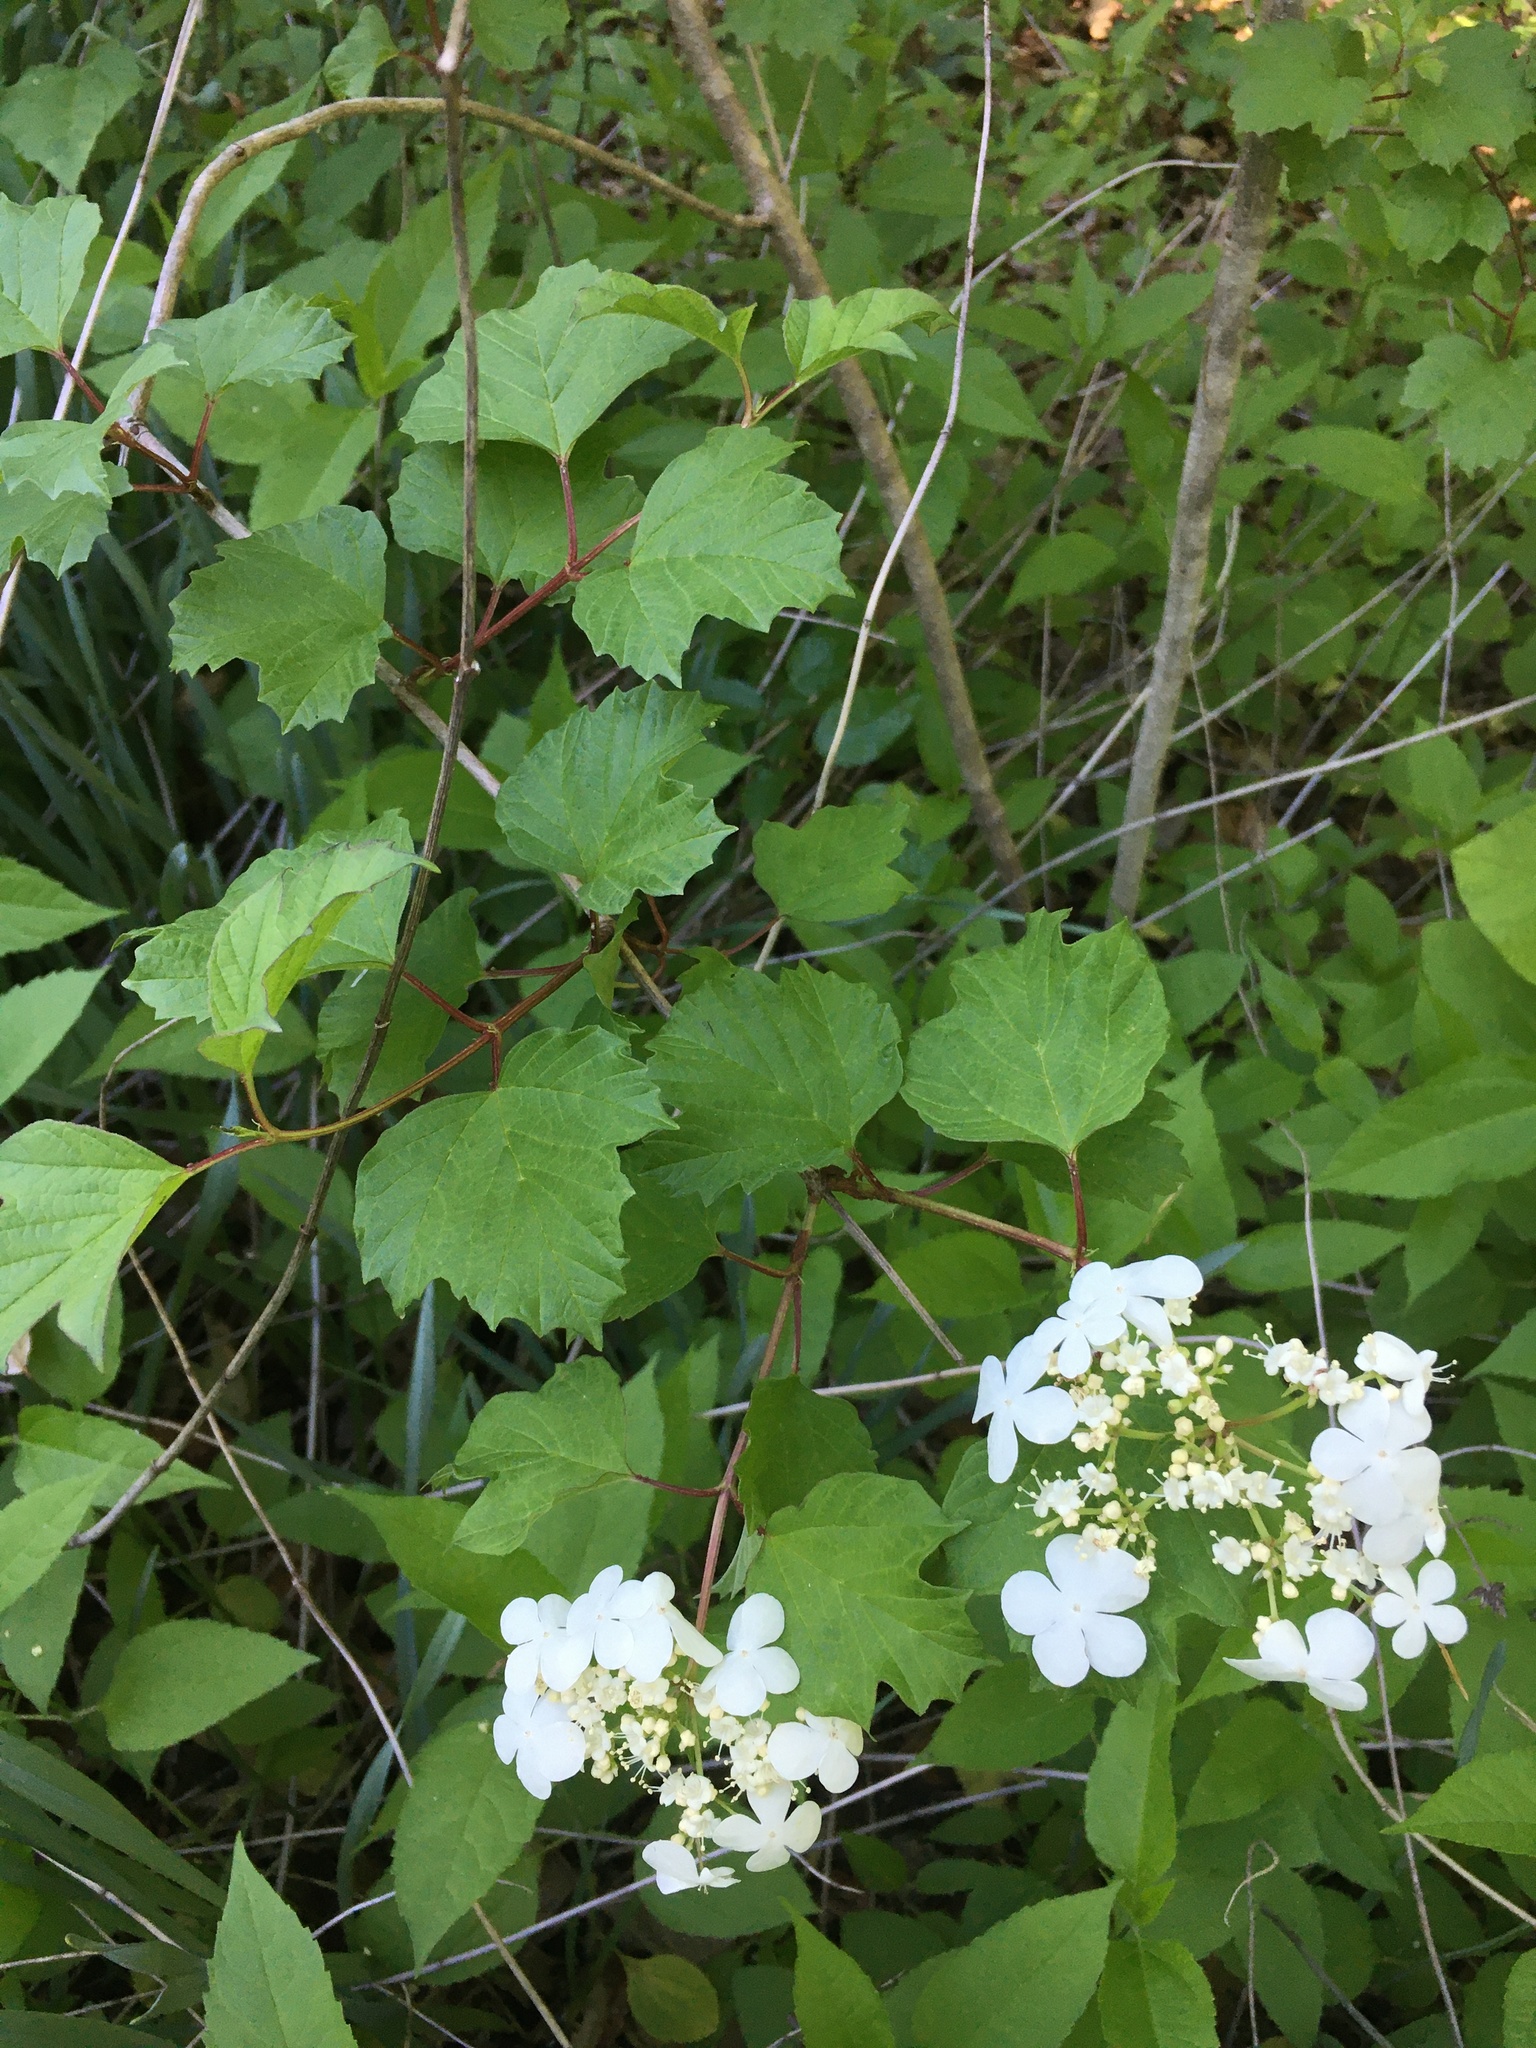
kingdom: Plantae
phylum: Tracheophyta
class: Magnoliopsida
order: Dipsacales
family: Viburnaceae
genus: Viburnum
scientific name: Viburnum opulus
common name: Guelder-rose
